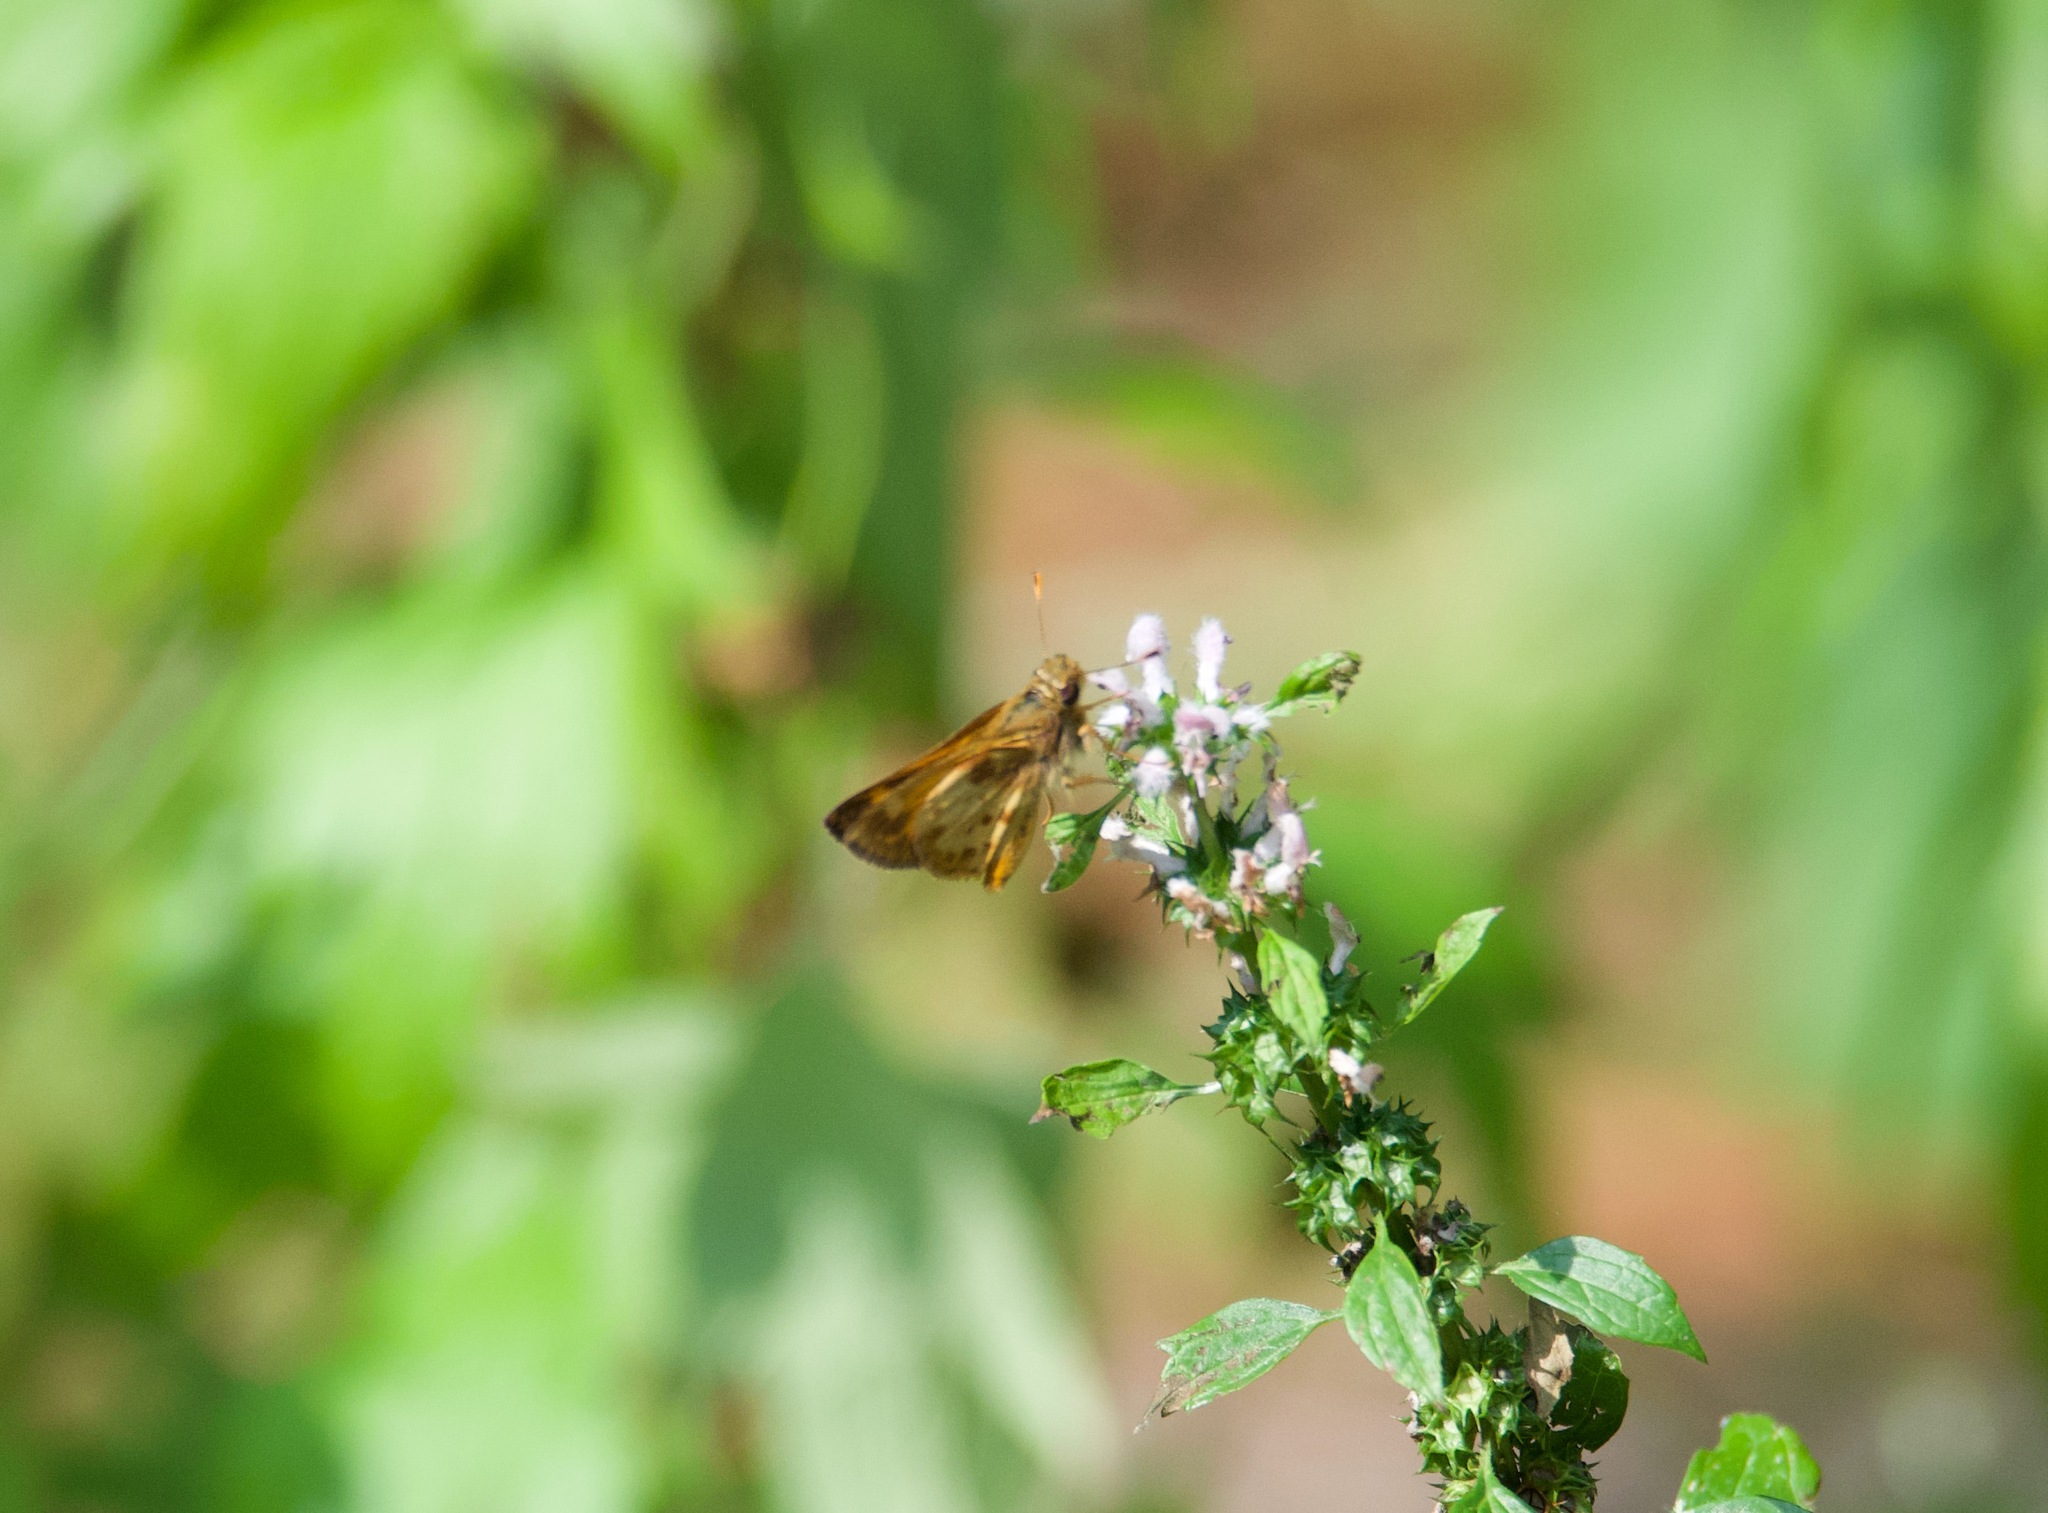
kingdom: Animalia
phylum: Arthropoda
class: Insecta
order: Lepidoptera
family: Hesperiidae
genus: Lon
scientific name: Lon zabulon
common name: Zabulon skipper
